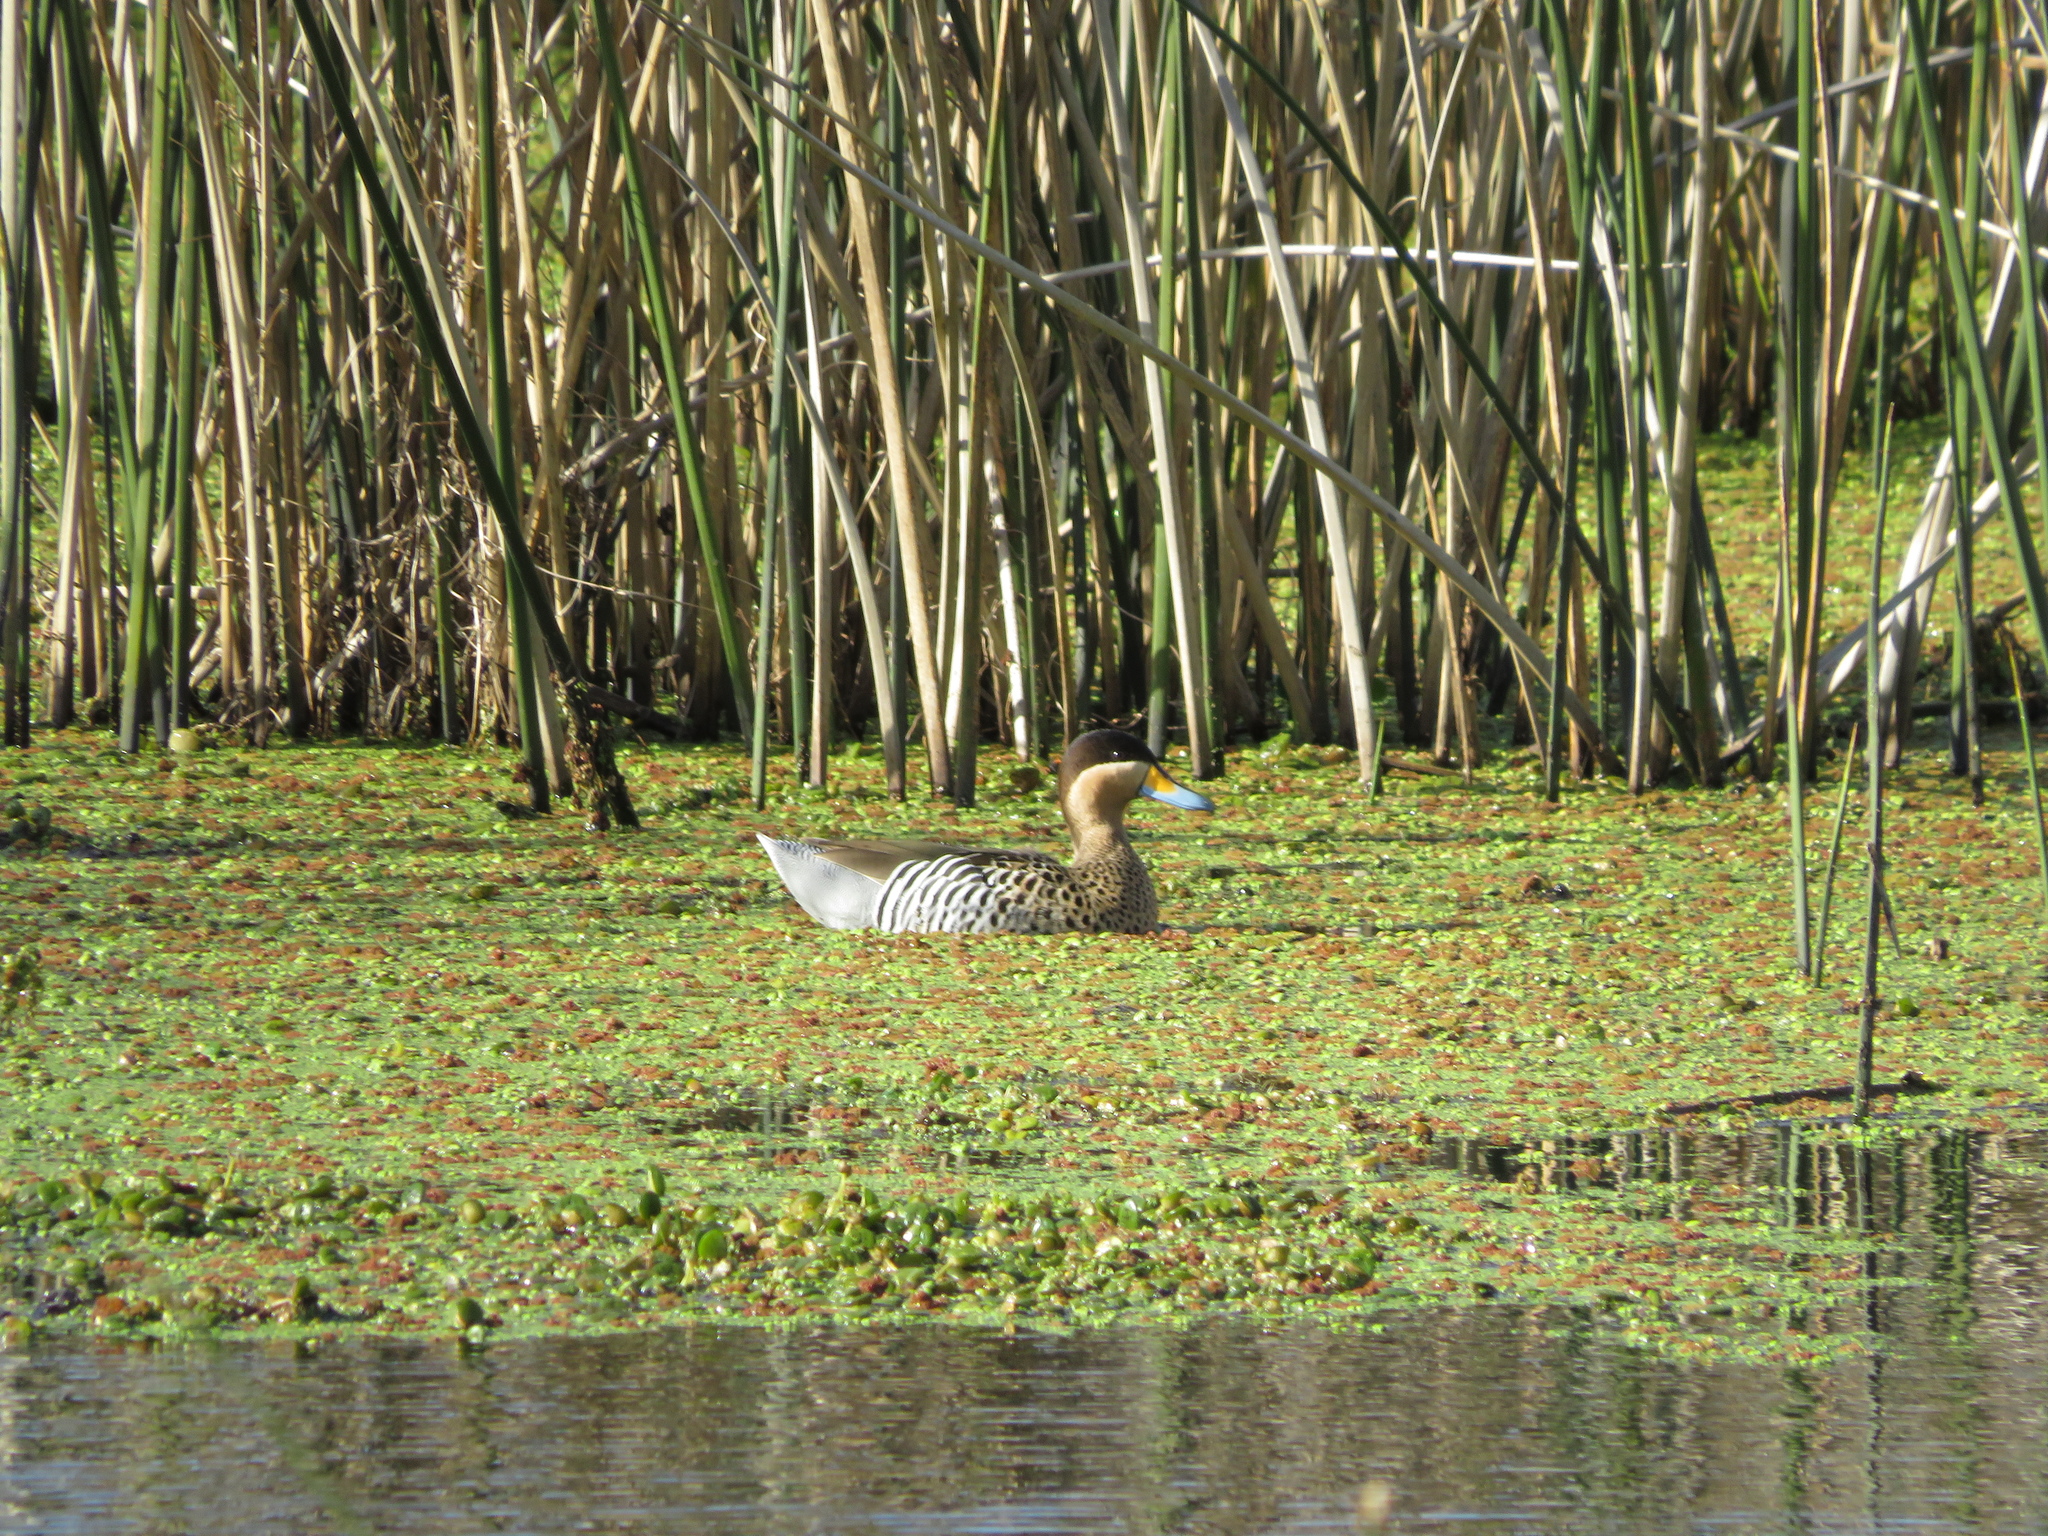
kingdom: Animalia
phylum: Chordata
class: Aves
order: Anseriformes
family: Anatidae
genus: Spatula
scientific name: Spatula versicolor
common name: Silver teal
